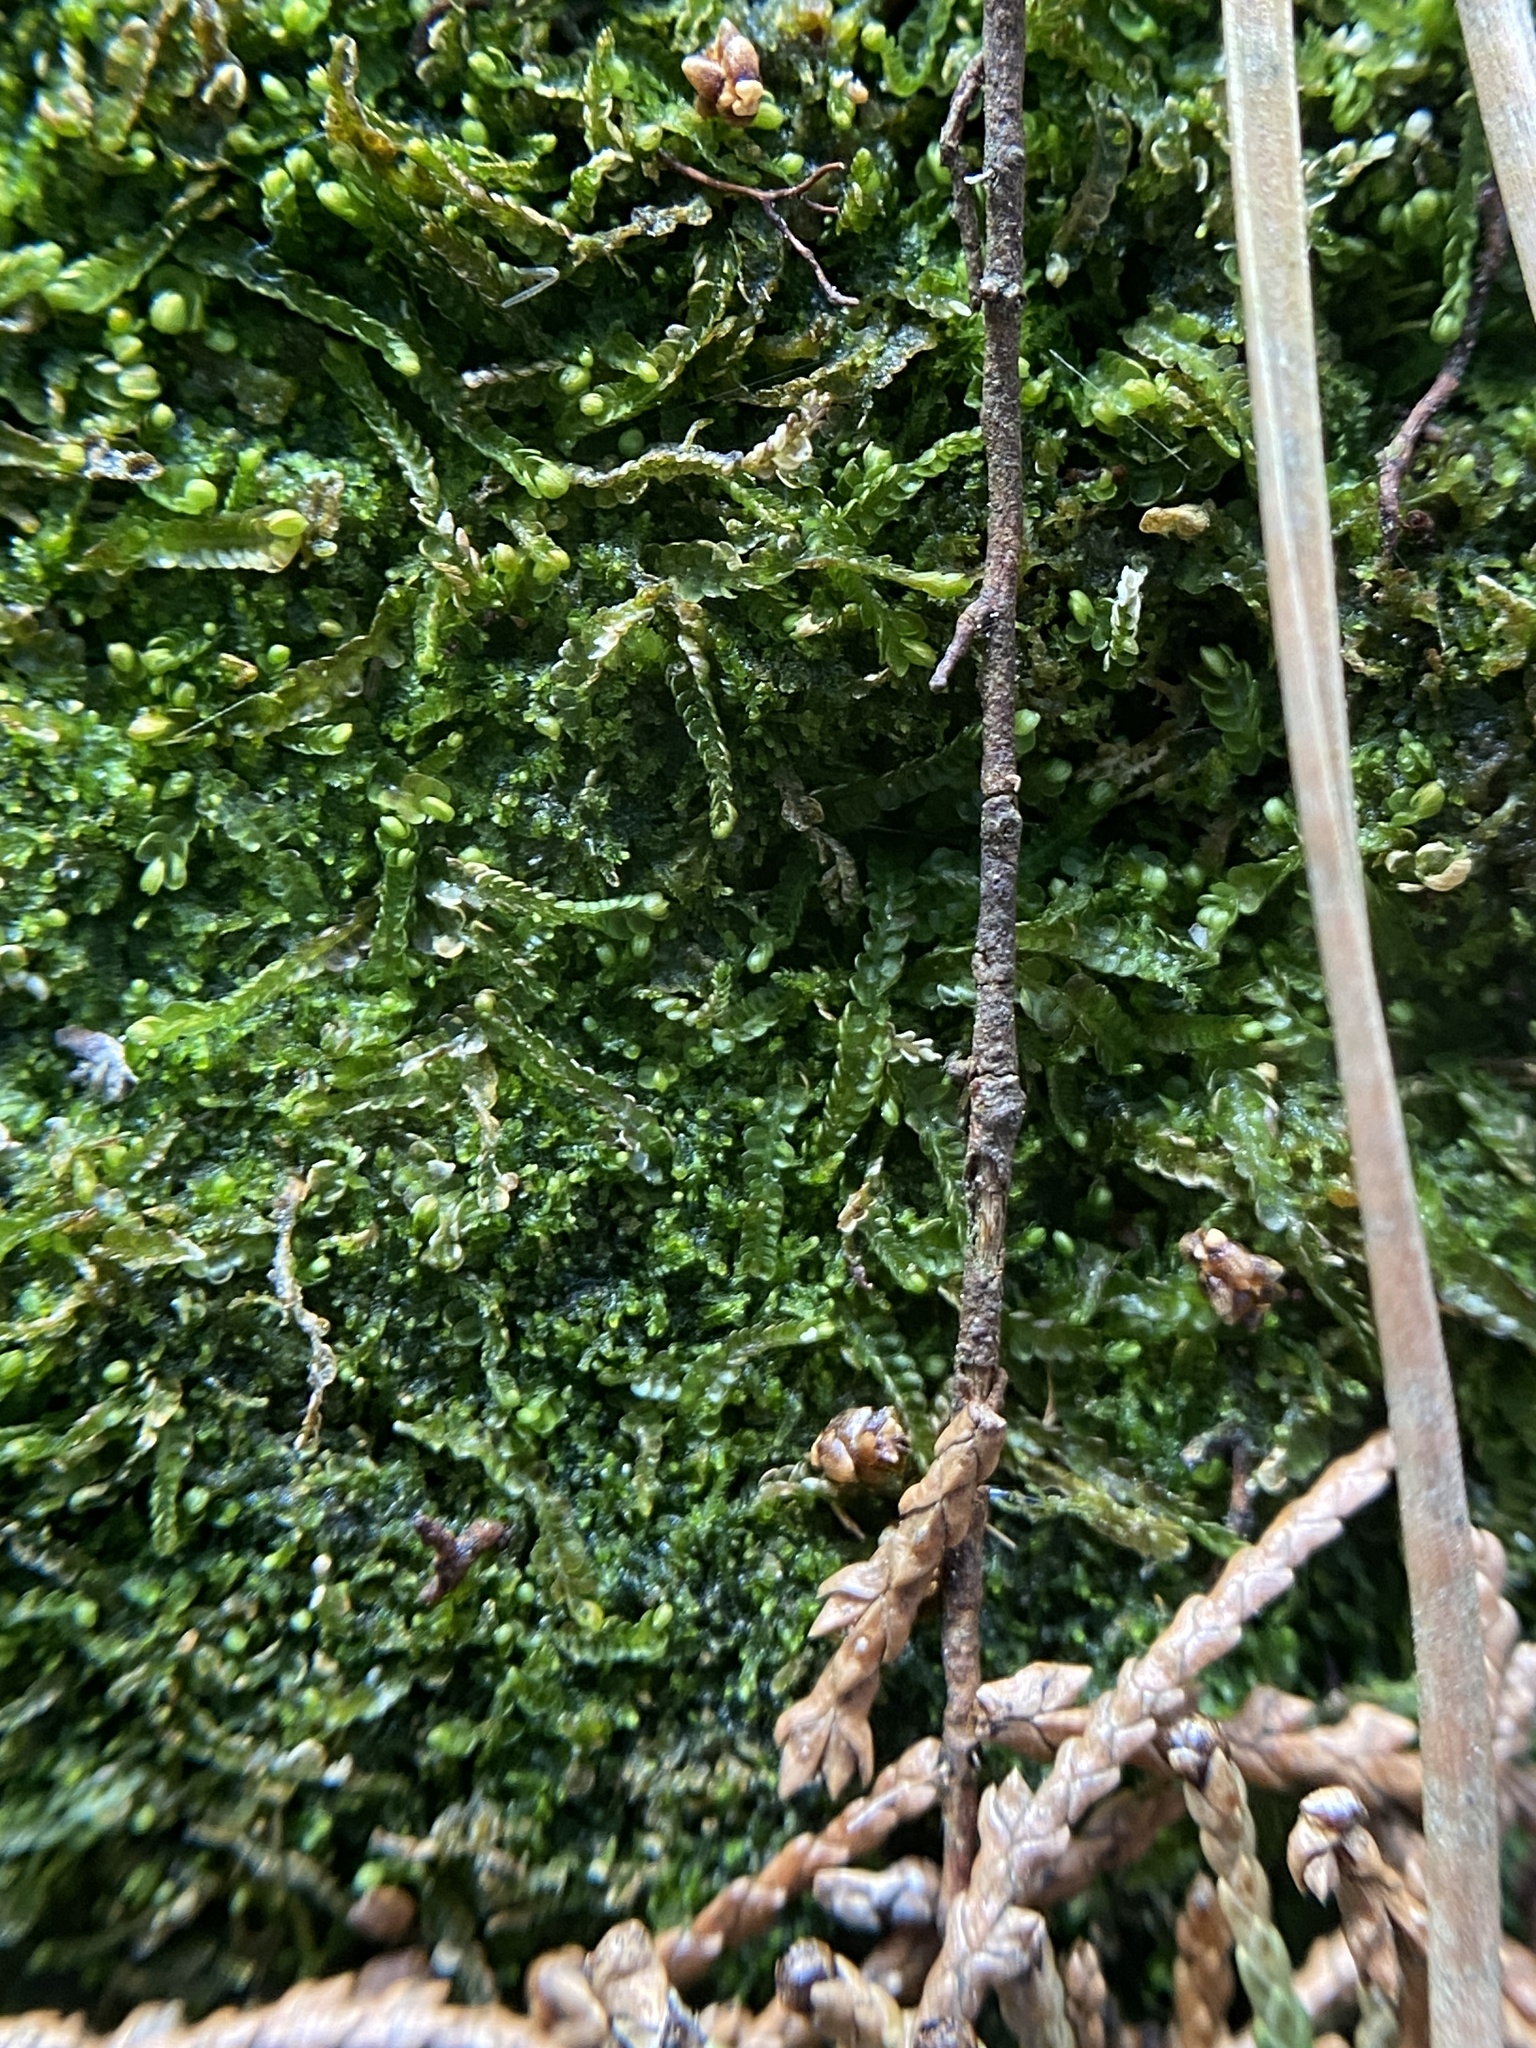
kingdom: Plantae
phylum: Marchantiophyta
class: Jungermanniopsida
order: Jungermanniales
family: Cephaloziaceae
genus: Odontoschisma
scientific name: Odontoschisma sphagni
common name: Bog-moss flapwort
